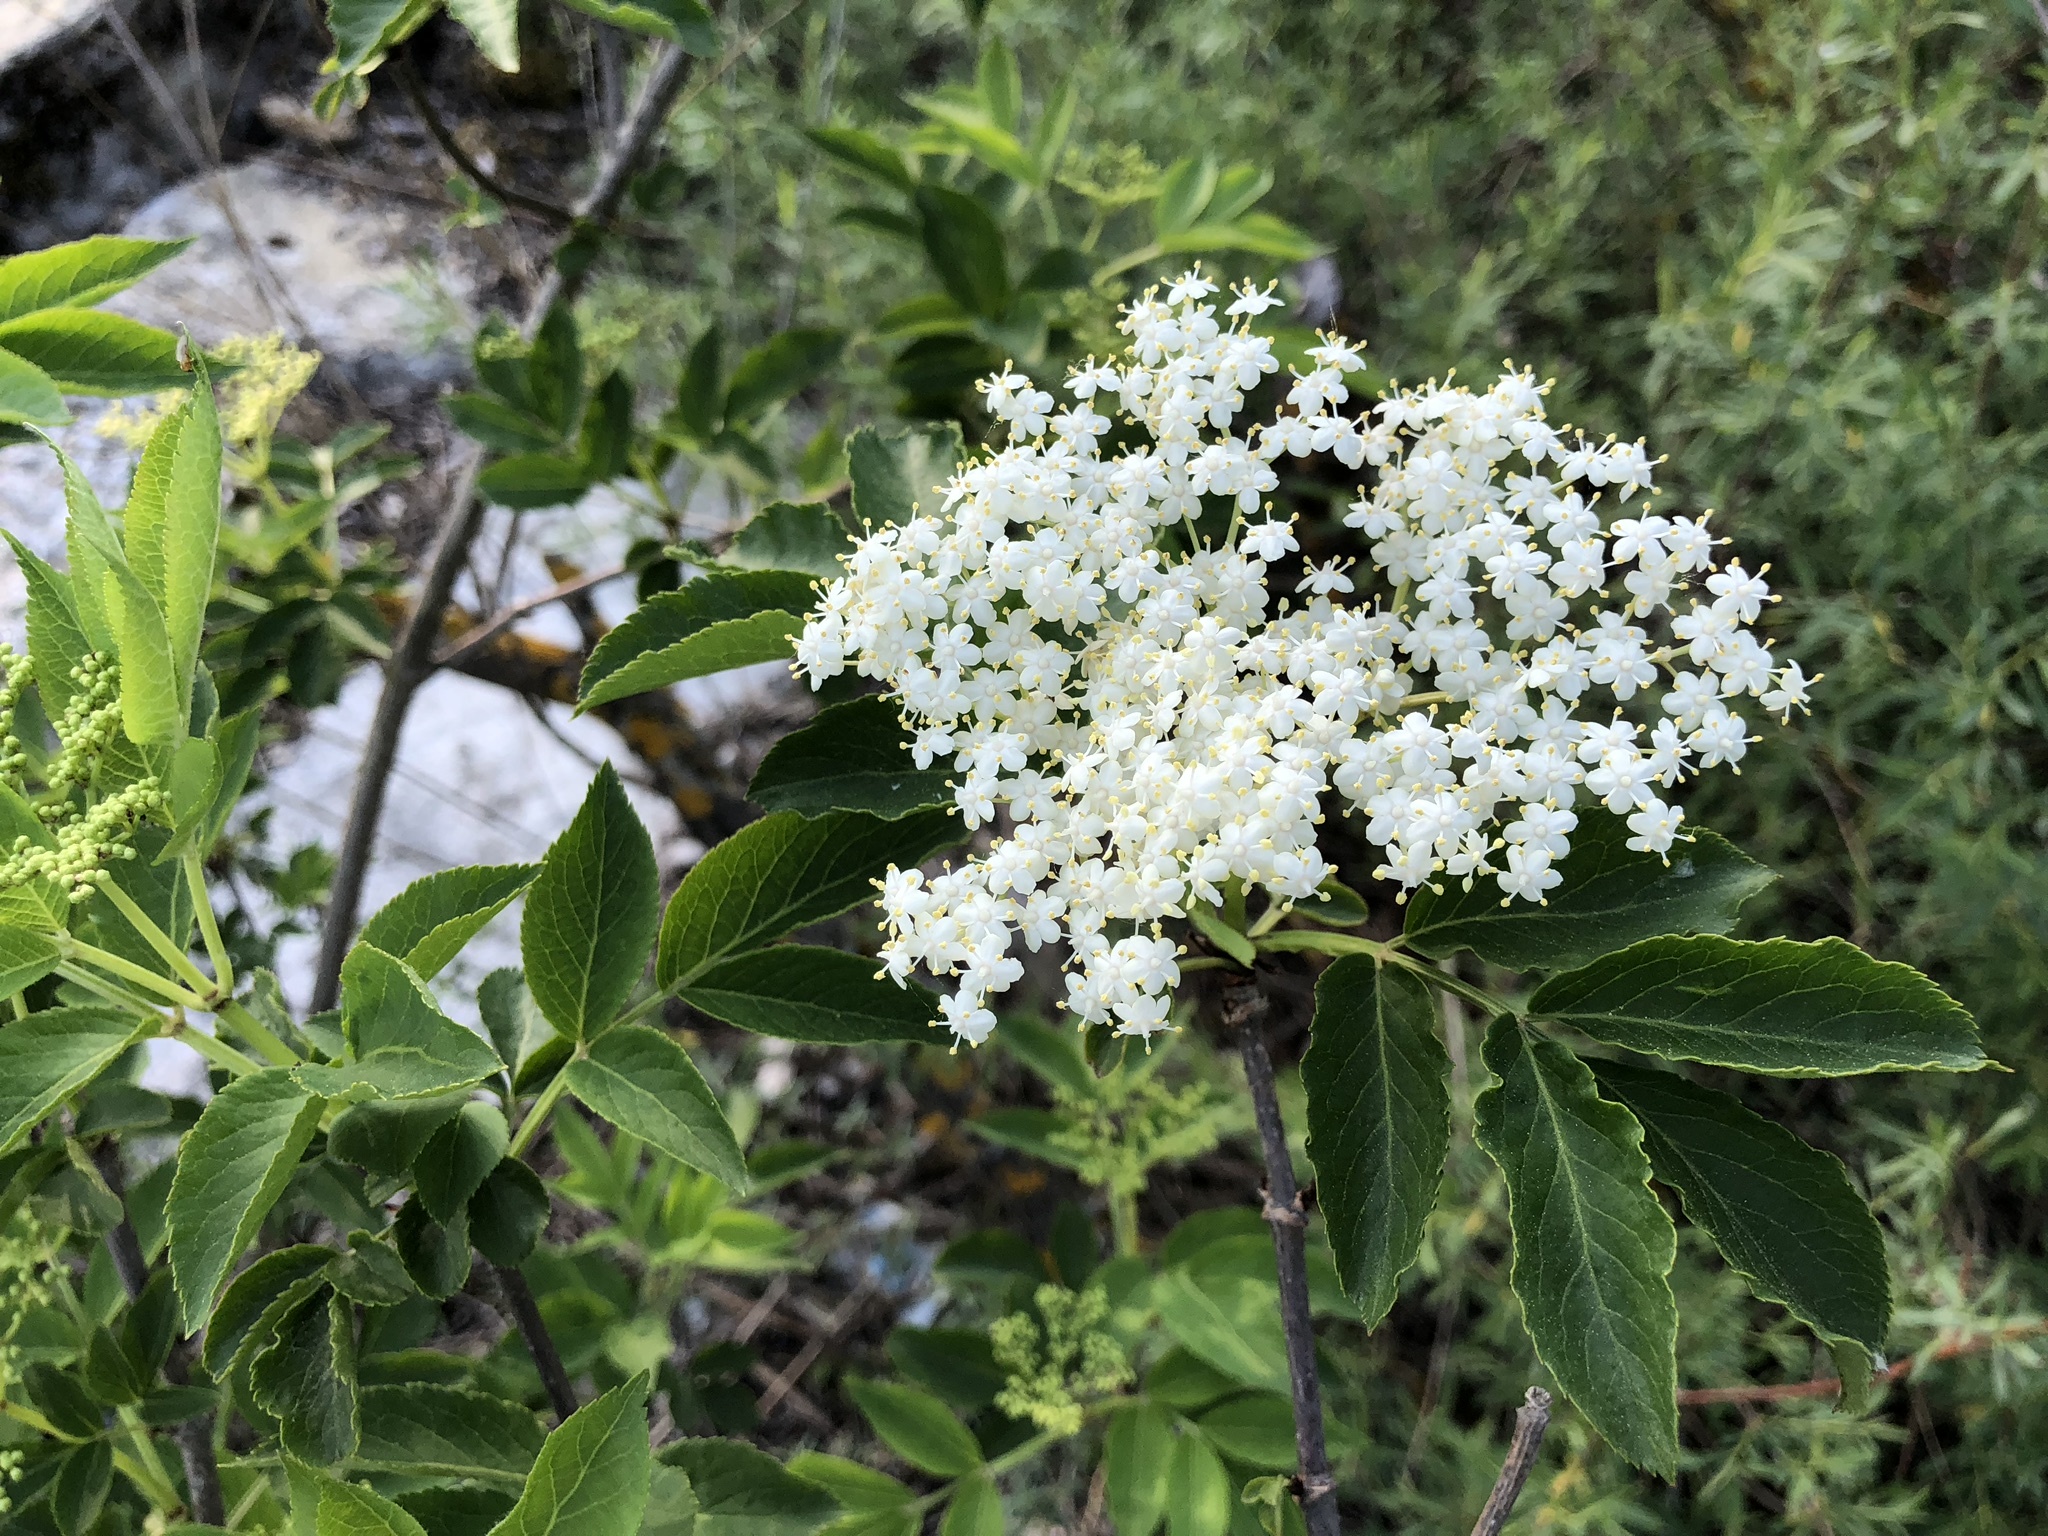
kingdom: Plantae
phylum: Tracheophyta
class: Magnoliopsida
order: Dipsacales
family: Viburnaceae
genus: Sambucus
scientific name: Sambucus nigra
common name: Elder
